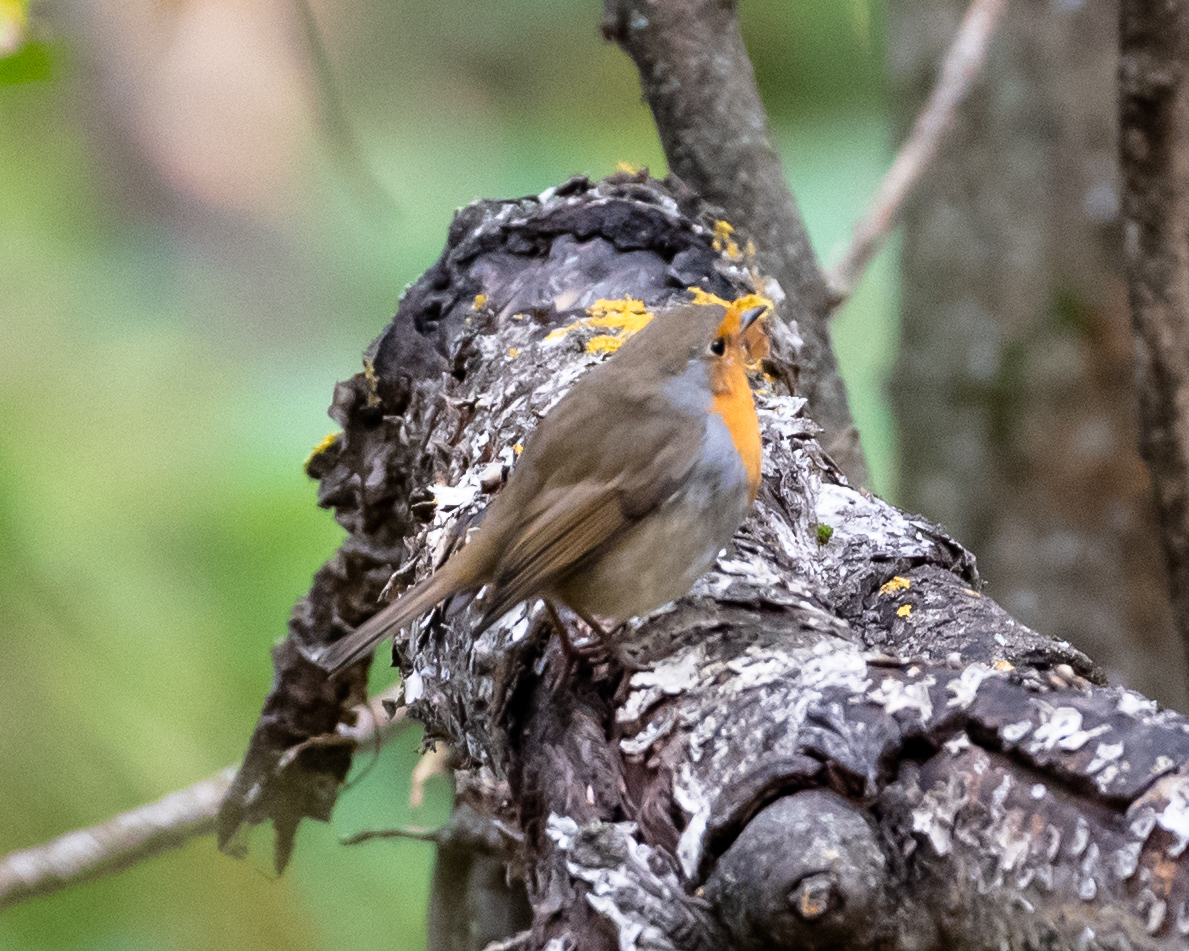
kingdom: Animalia
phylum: Chordata
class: Aves
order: Passeriformes
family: Muscicapidae
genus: Erithacus
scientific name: Erithacus rubecula
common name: European robin
